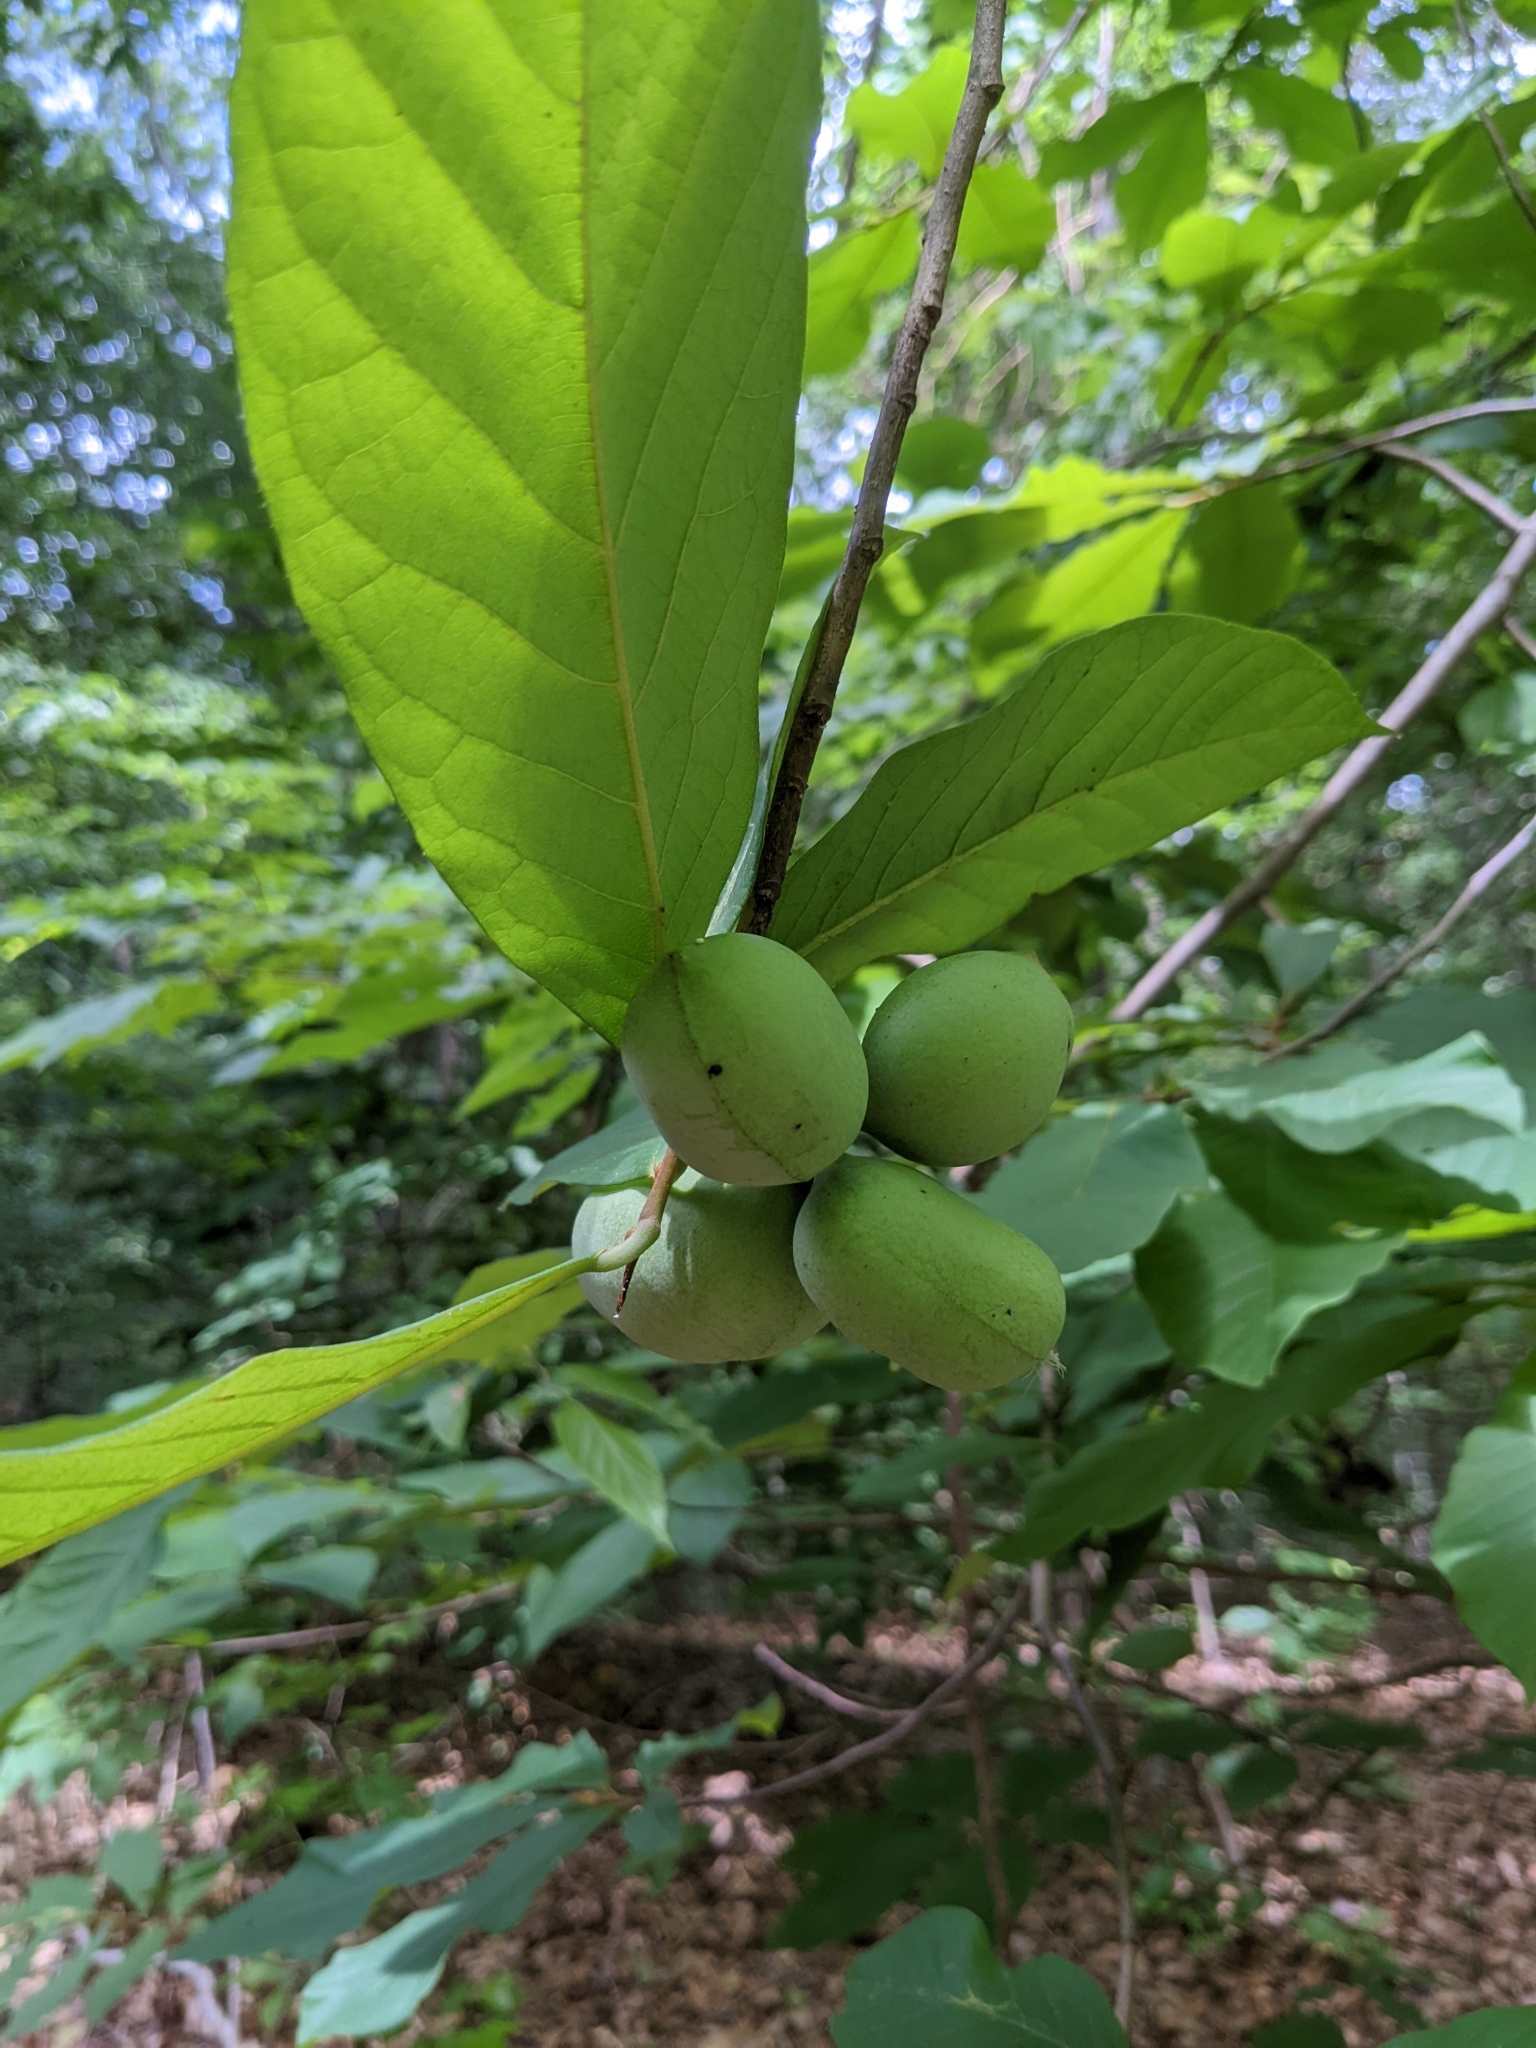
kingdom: Plantae
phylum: Tracheophyta
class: Magnoliopsida
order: Magnoliales
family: Annonaceae
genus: Asimina
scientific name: Asimina triloba
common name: Dog-banana
